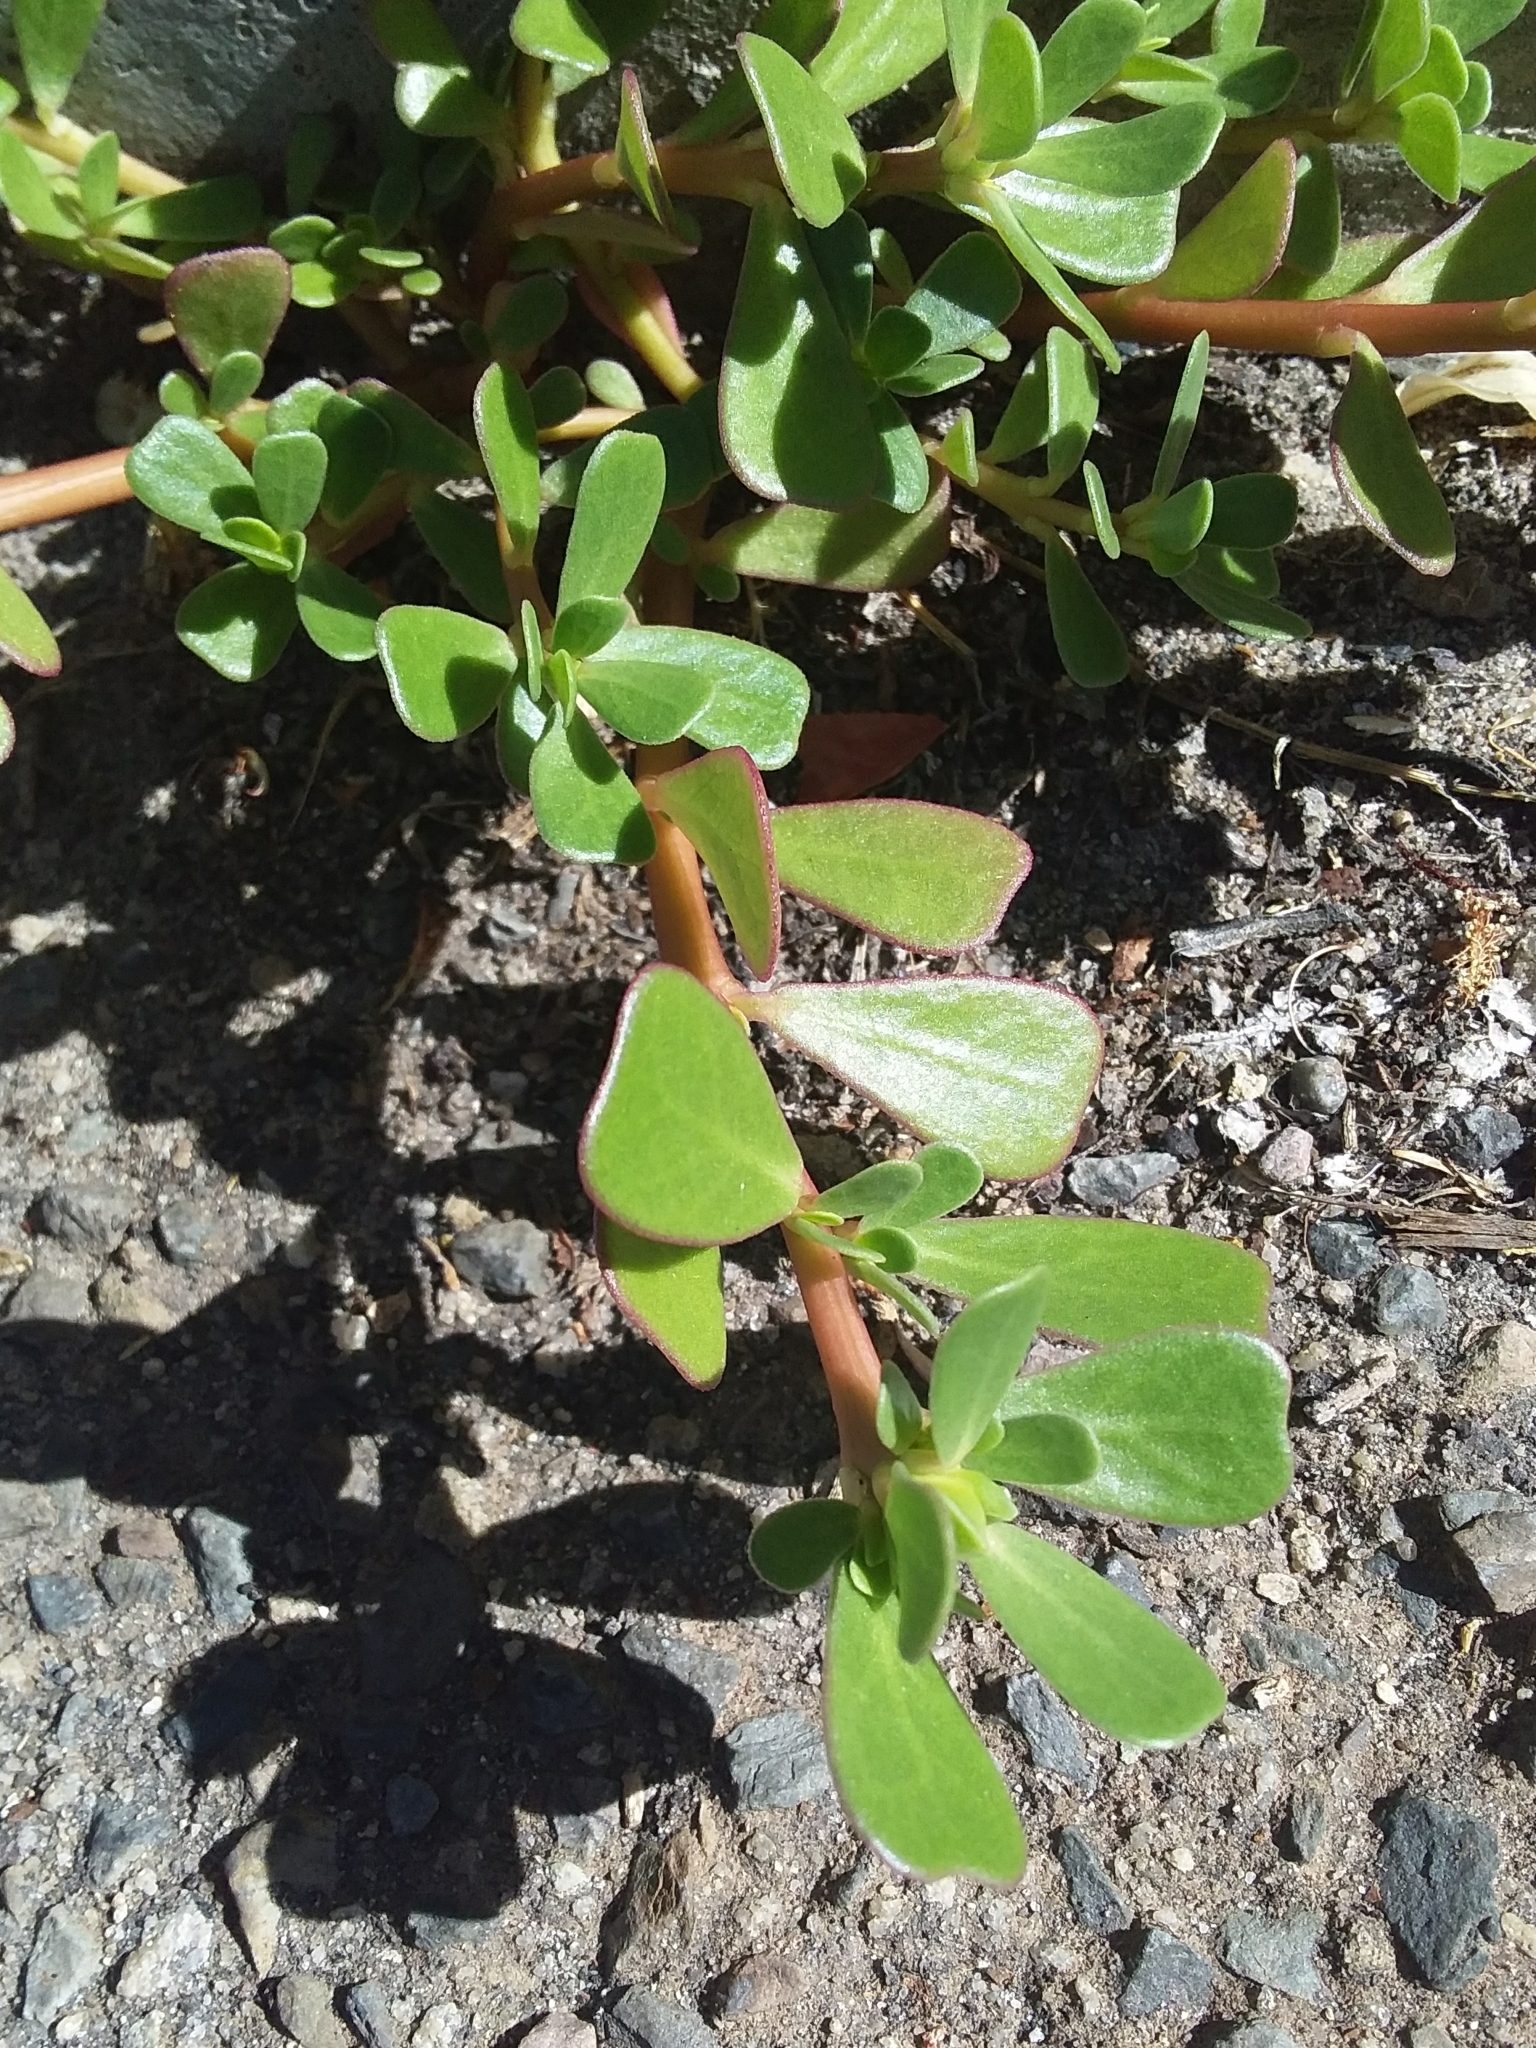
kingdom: Plantae
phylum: Tracheophyta
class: Magnoliopsida
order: Caryophyllales
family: Portulacaceae
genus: Portulaca
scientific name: Portulaca oleracea
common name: Common purslane
